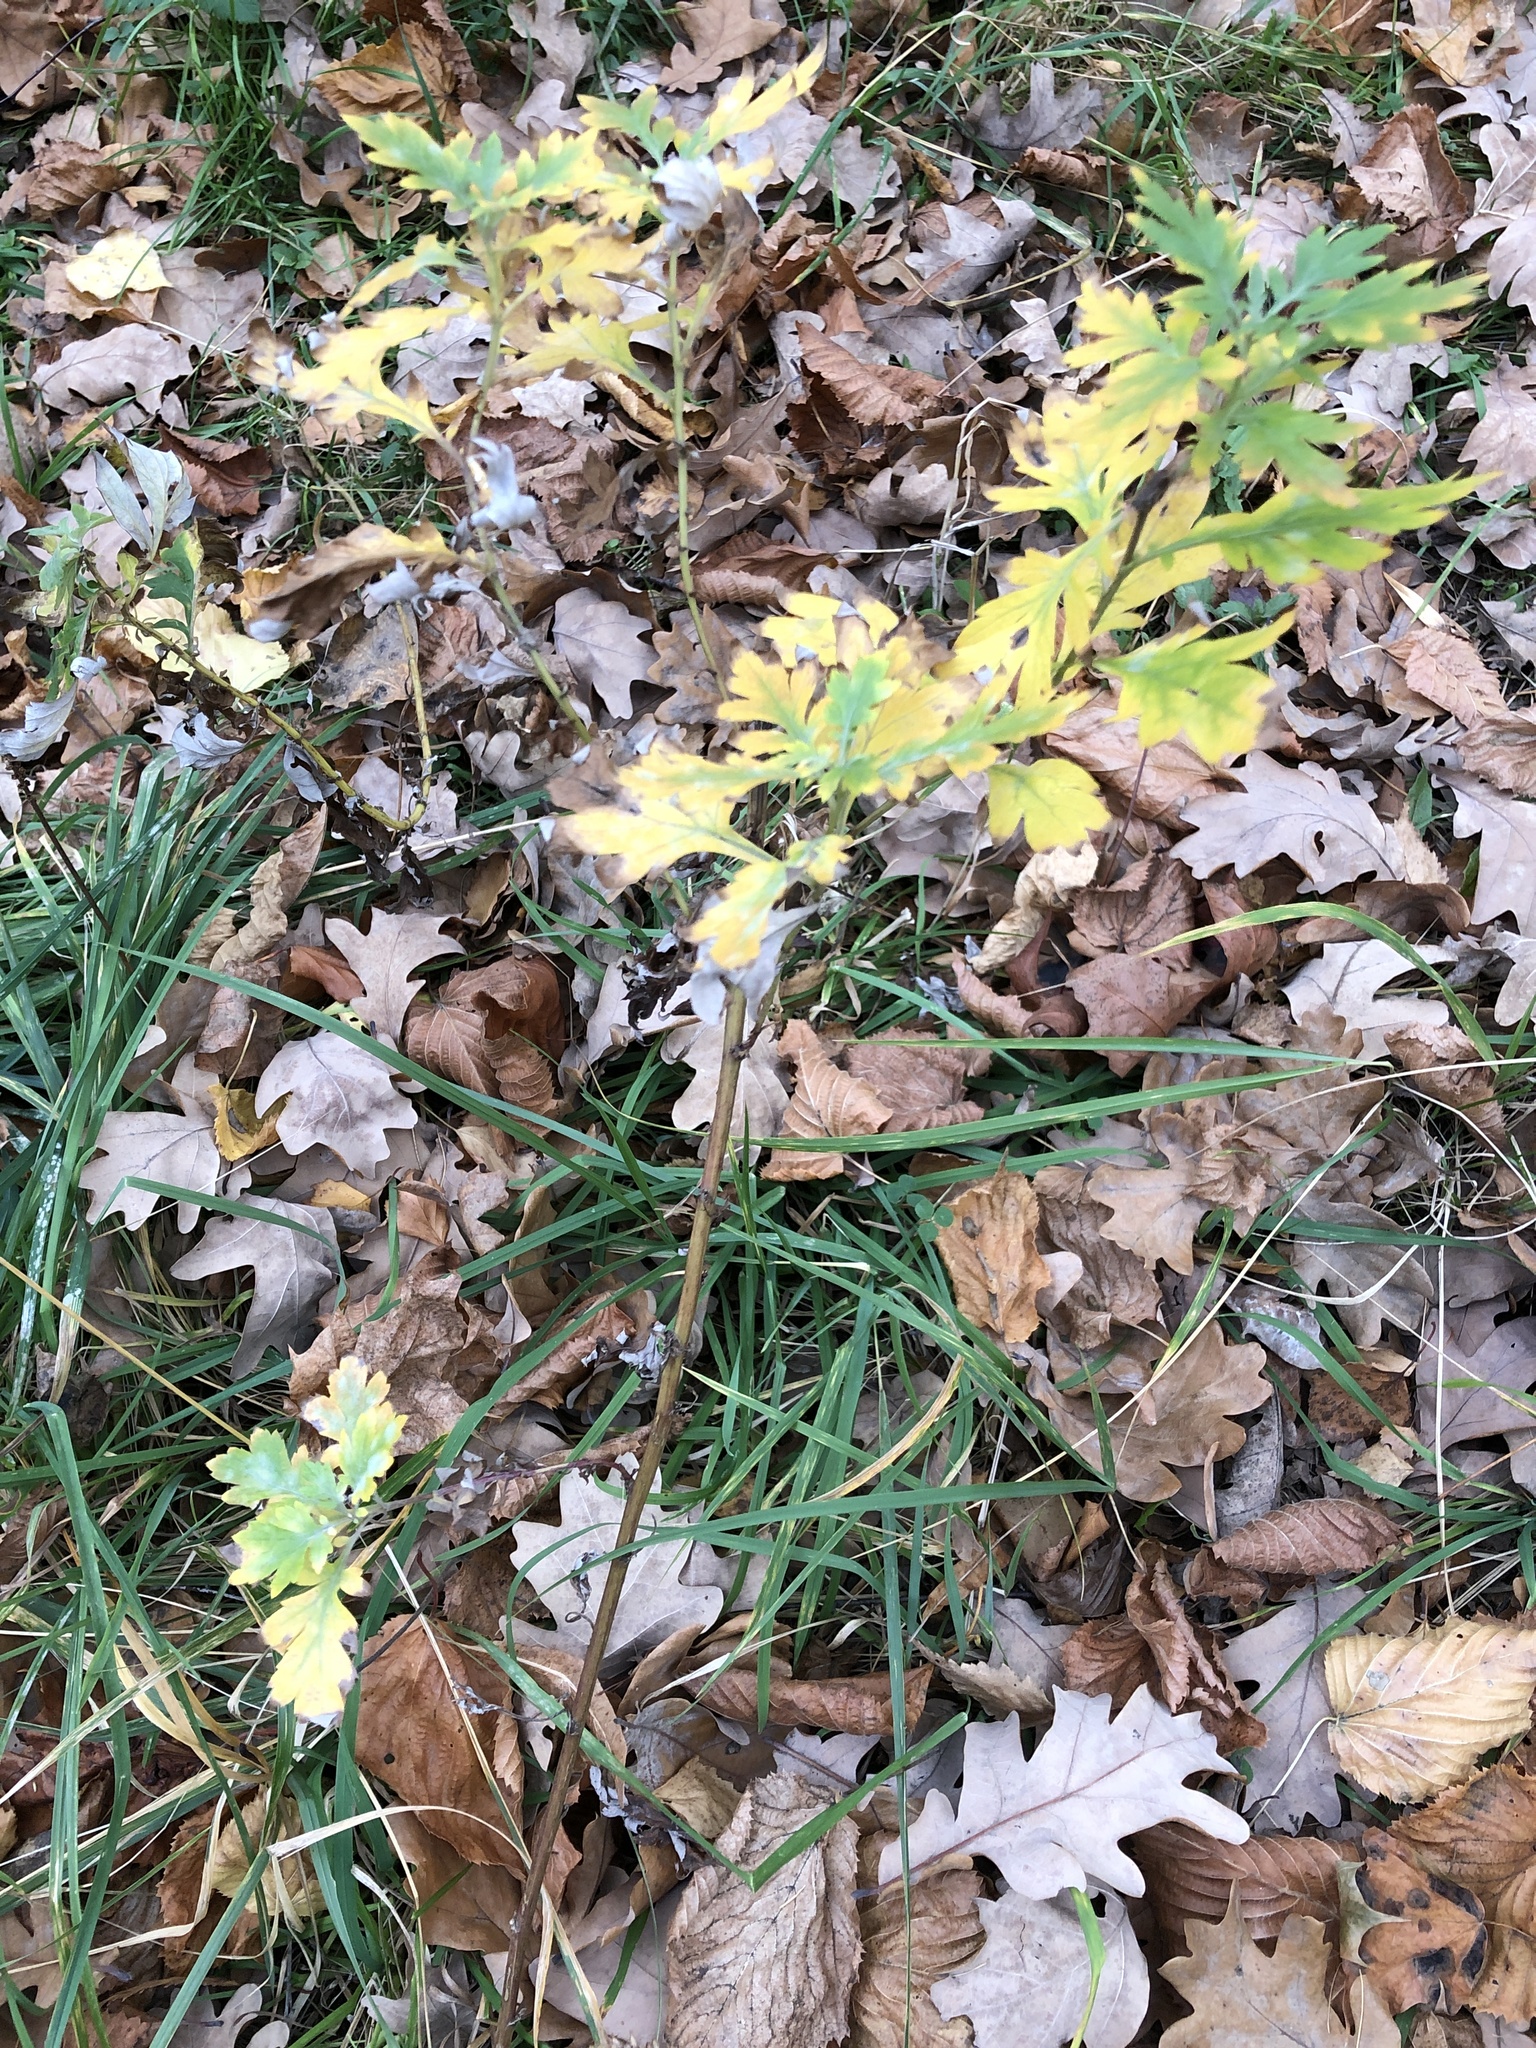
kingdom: Plantae
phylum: Tracheophyta
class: Magnoliopsida
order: Asterales
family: Asteraceae
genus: Artemisia
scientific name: Artemisia vulgaris
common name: Mugwort
